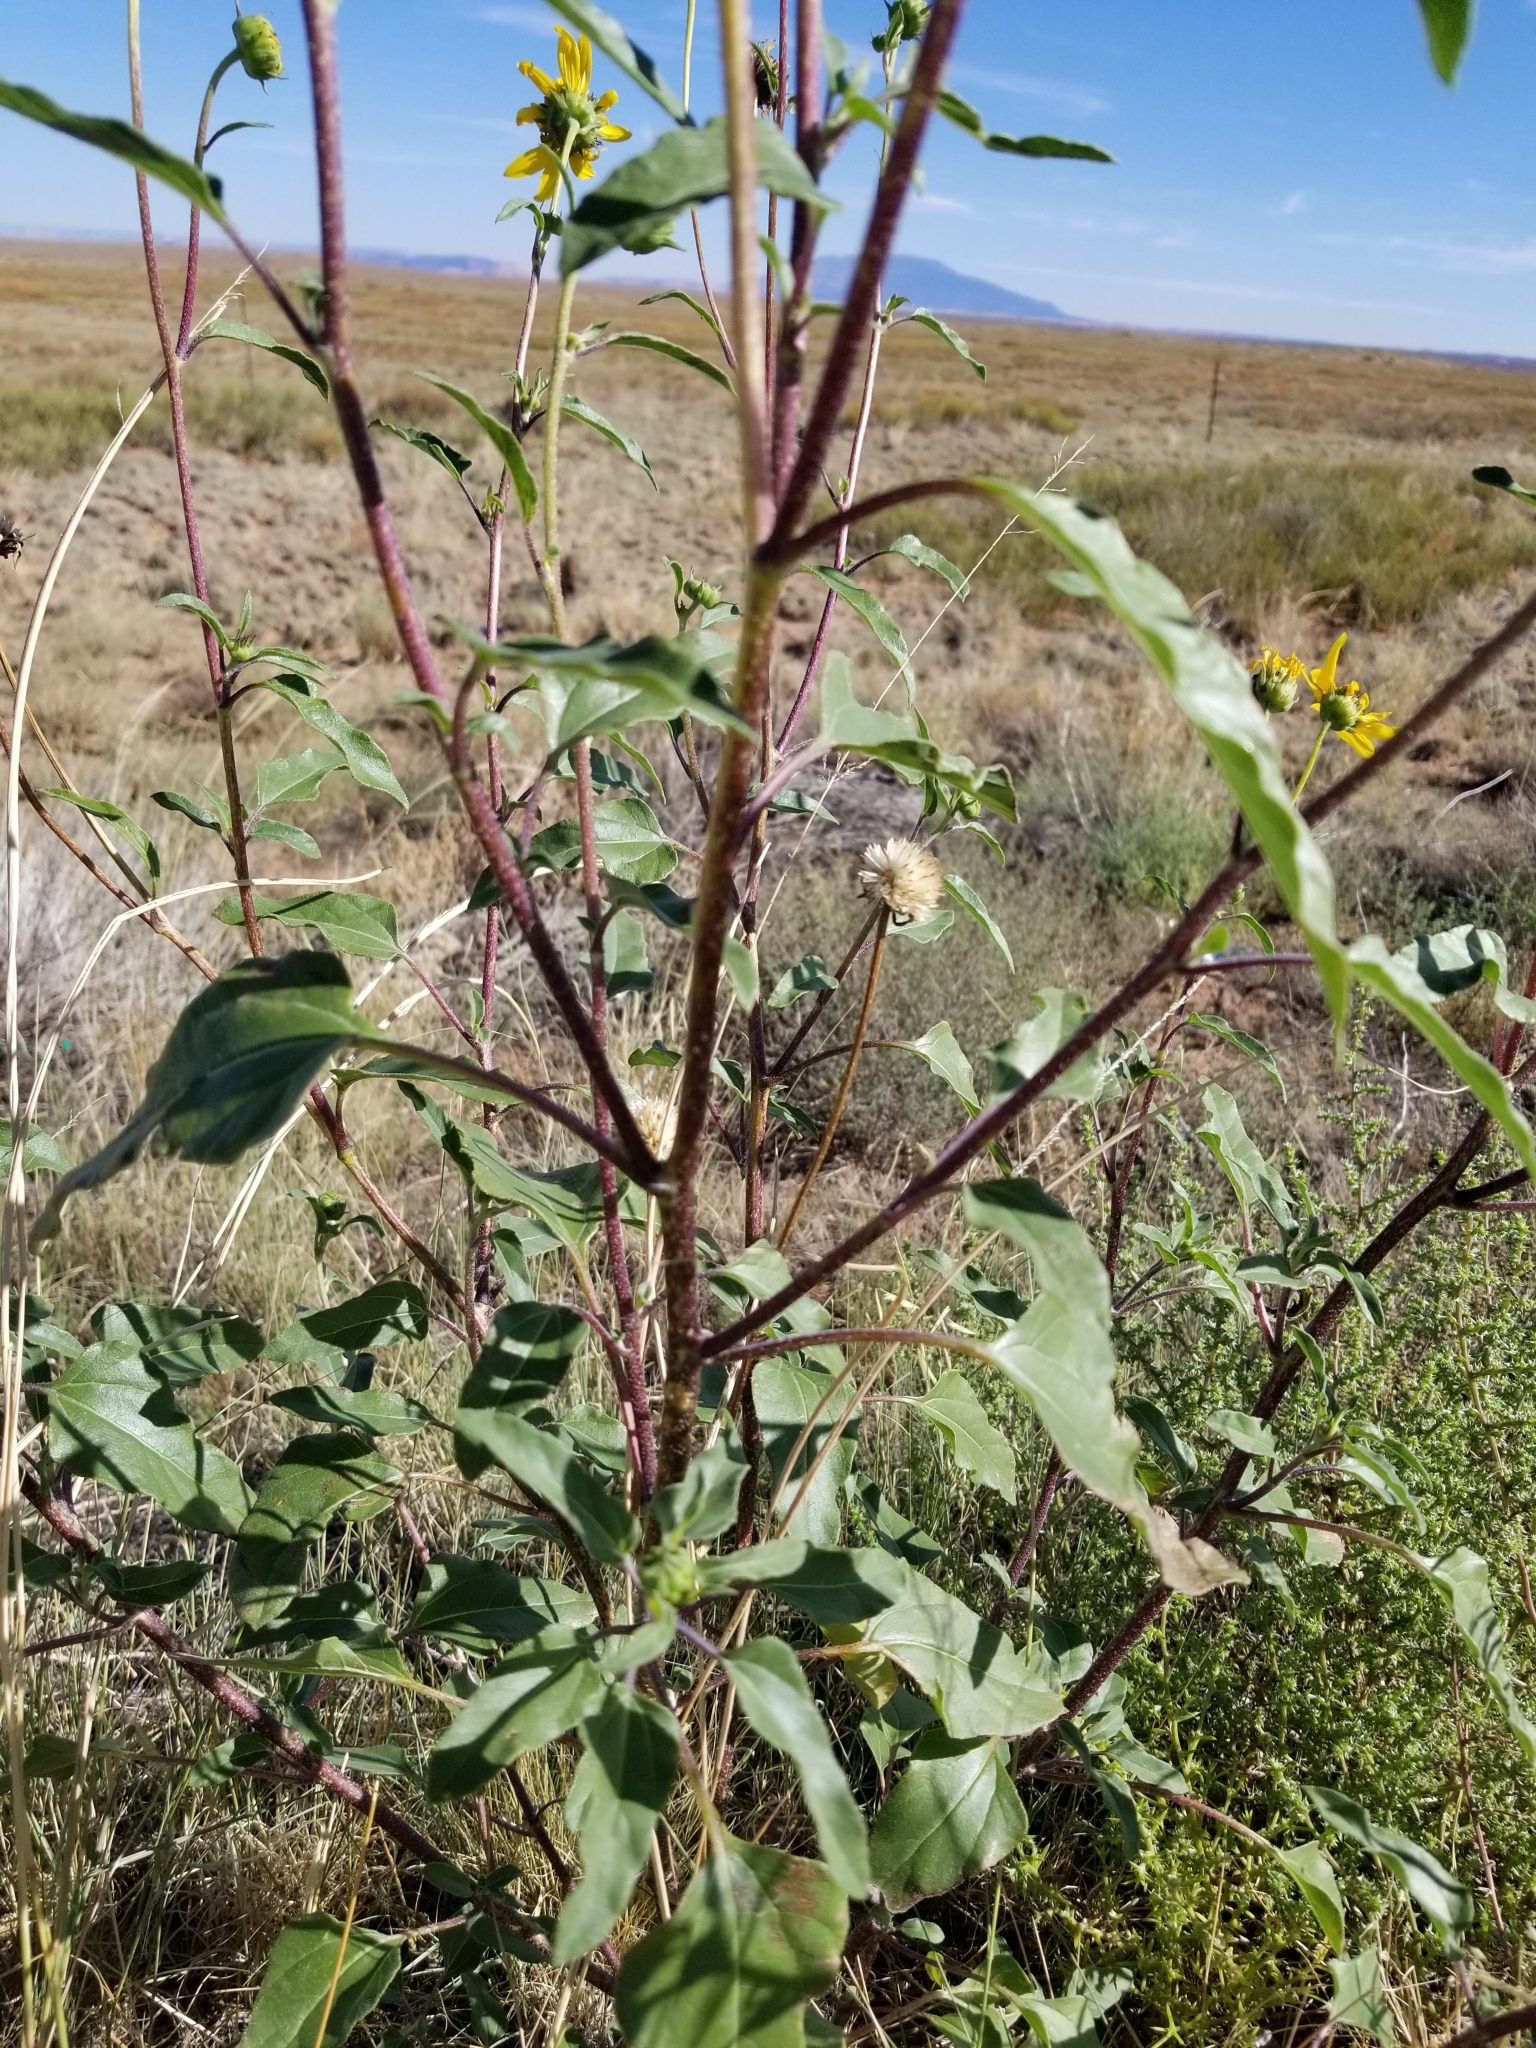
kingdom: Plantae
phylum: Tracheophyta
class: Magnoliopsida
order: Asterales
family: Asteraceae
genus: Helianthus
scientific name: Helianthus petiolaris
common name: Lesser sunflower
